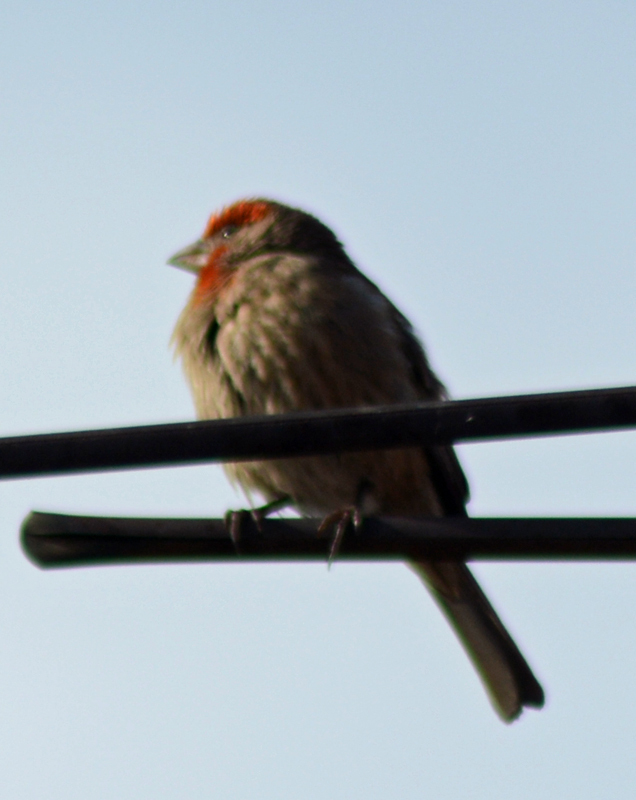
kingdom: Animalia
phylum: Chordata
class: Aves
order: Passeriformes
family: Fringillidae
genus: Haemorhous
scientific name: Haemorhous mexicanus
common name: House finch
